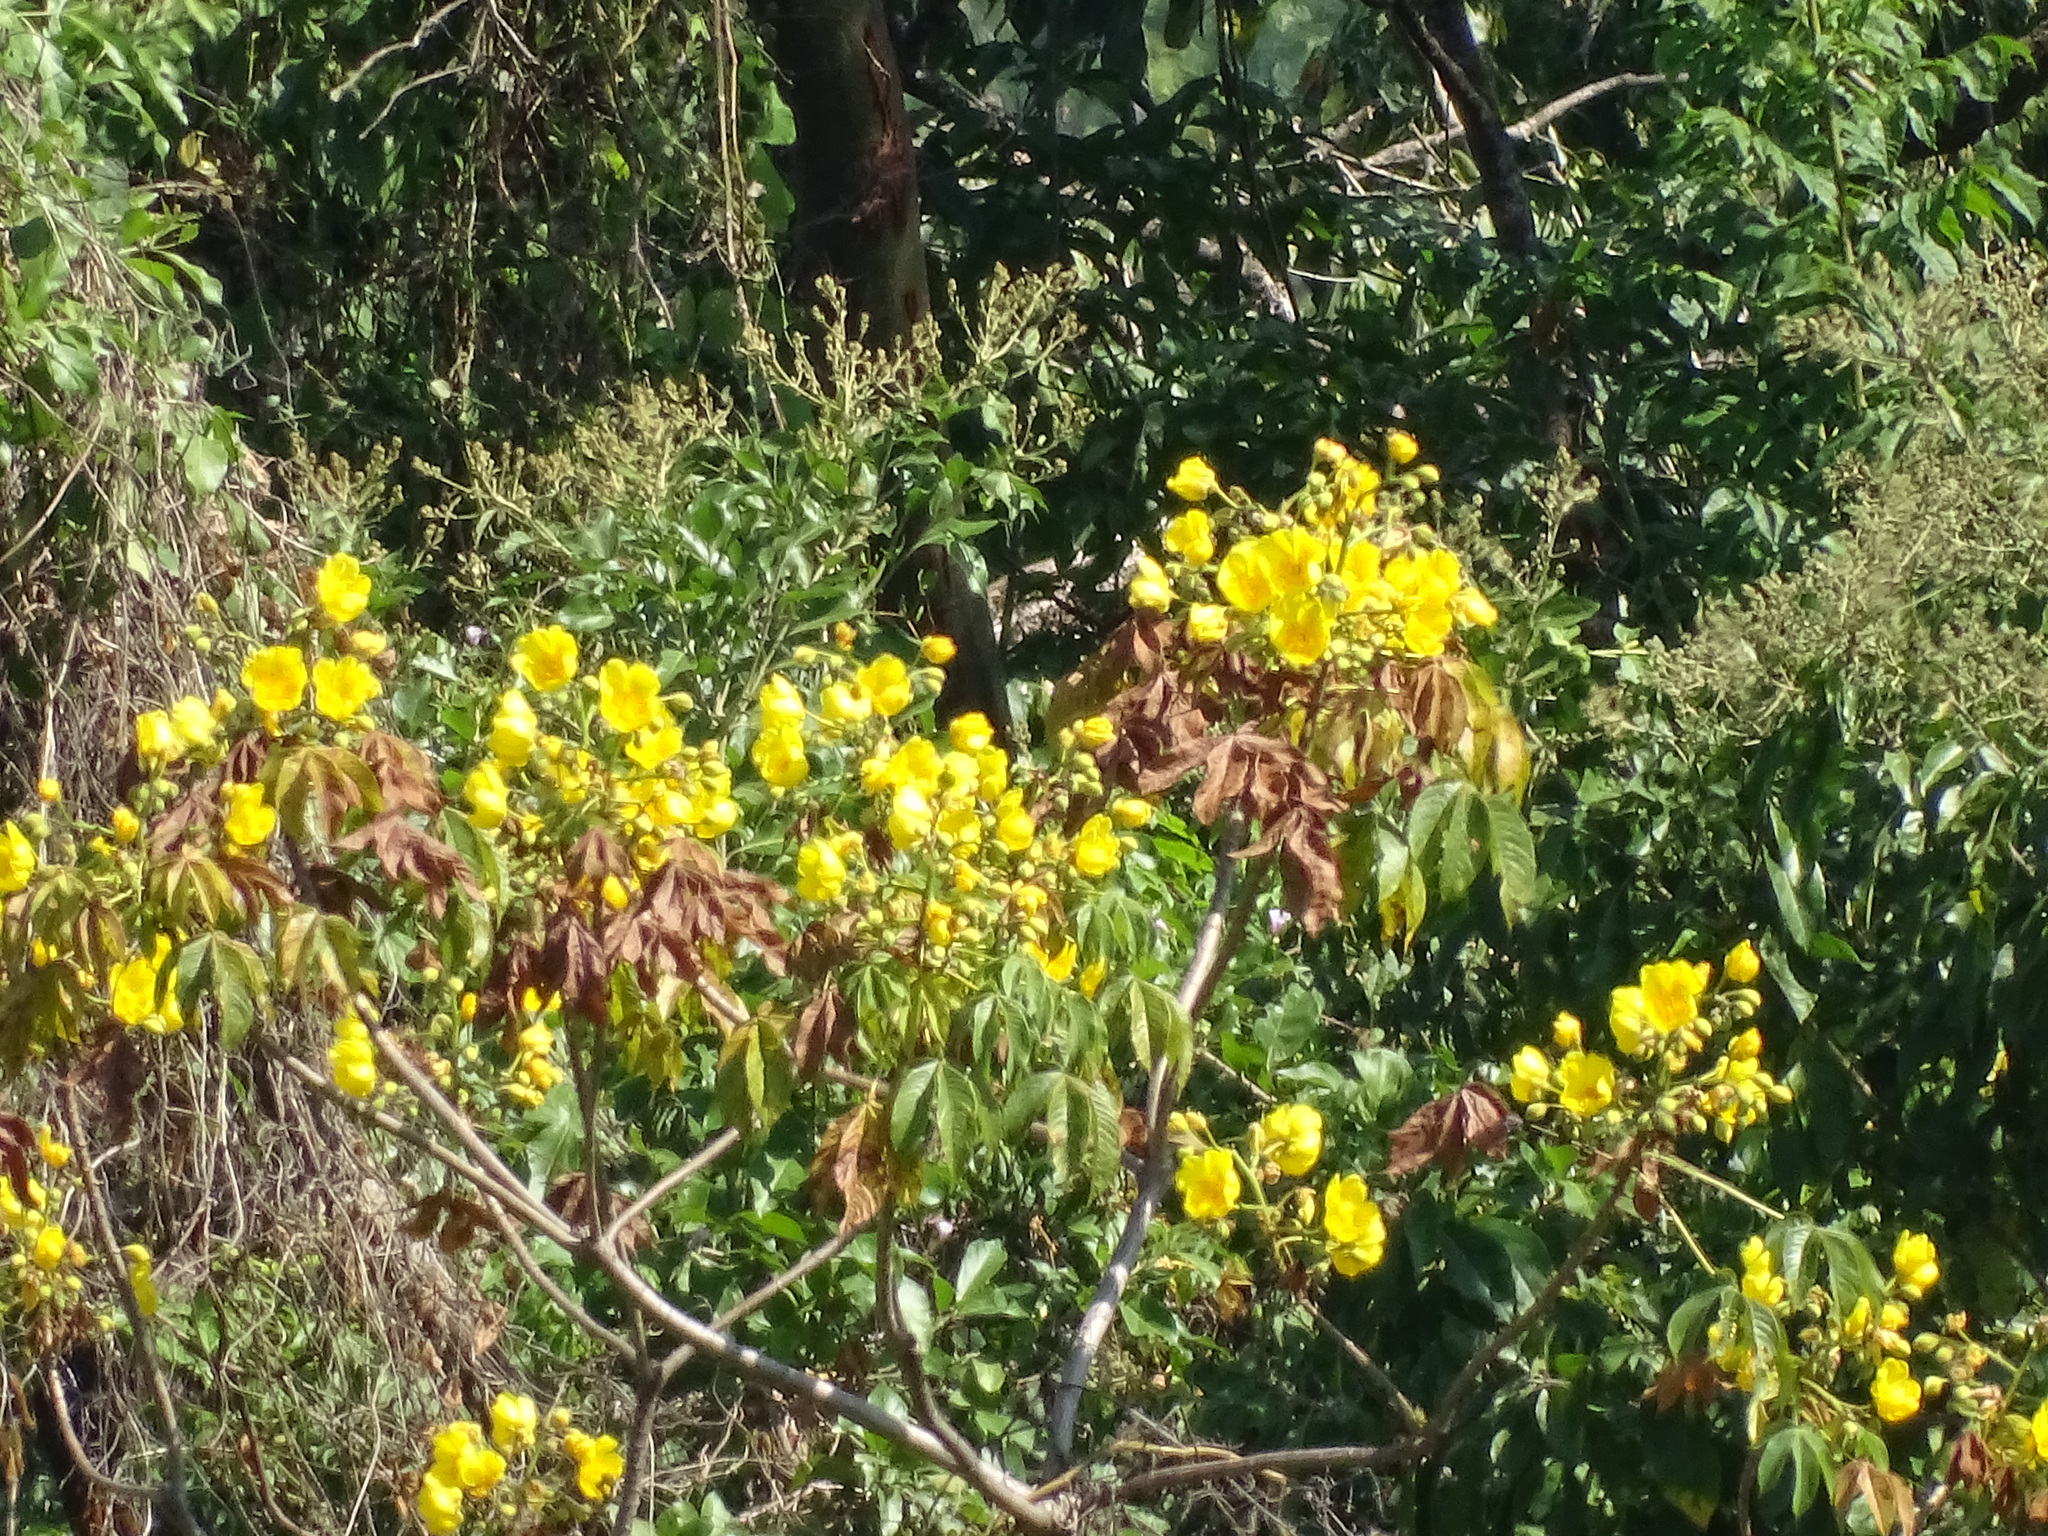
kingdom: Plantae
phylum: Tracheophyta
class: Magnoliopsida
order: Malvales
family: Cochlospermaceae
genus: Cochlospermum
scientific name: Cochlospermum vitifolium
